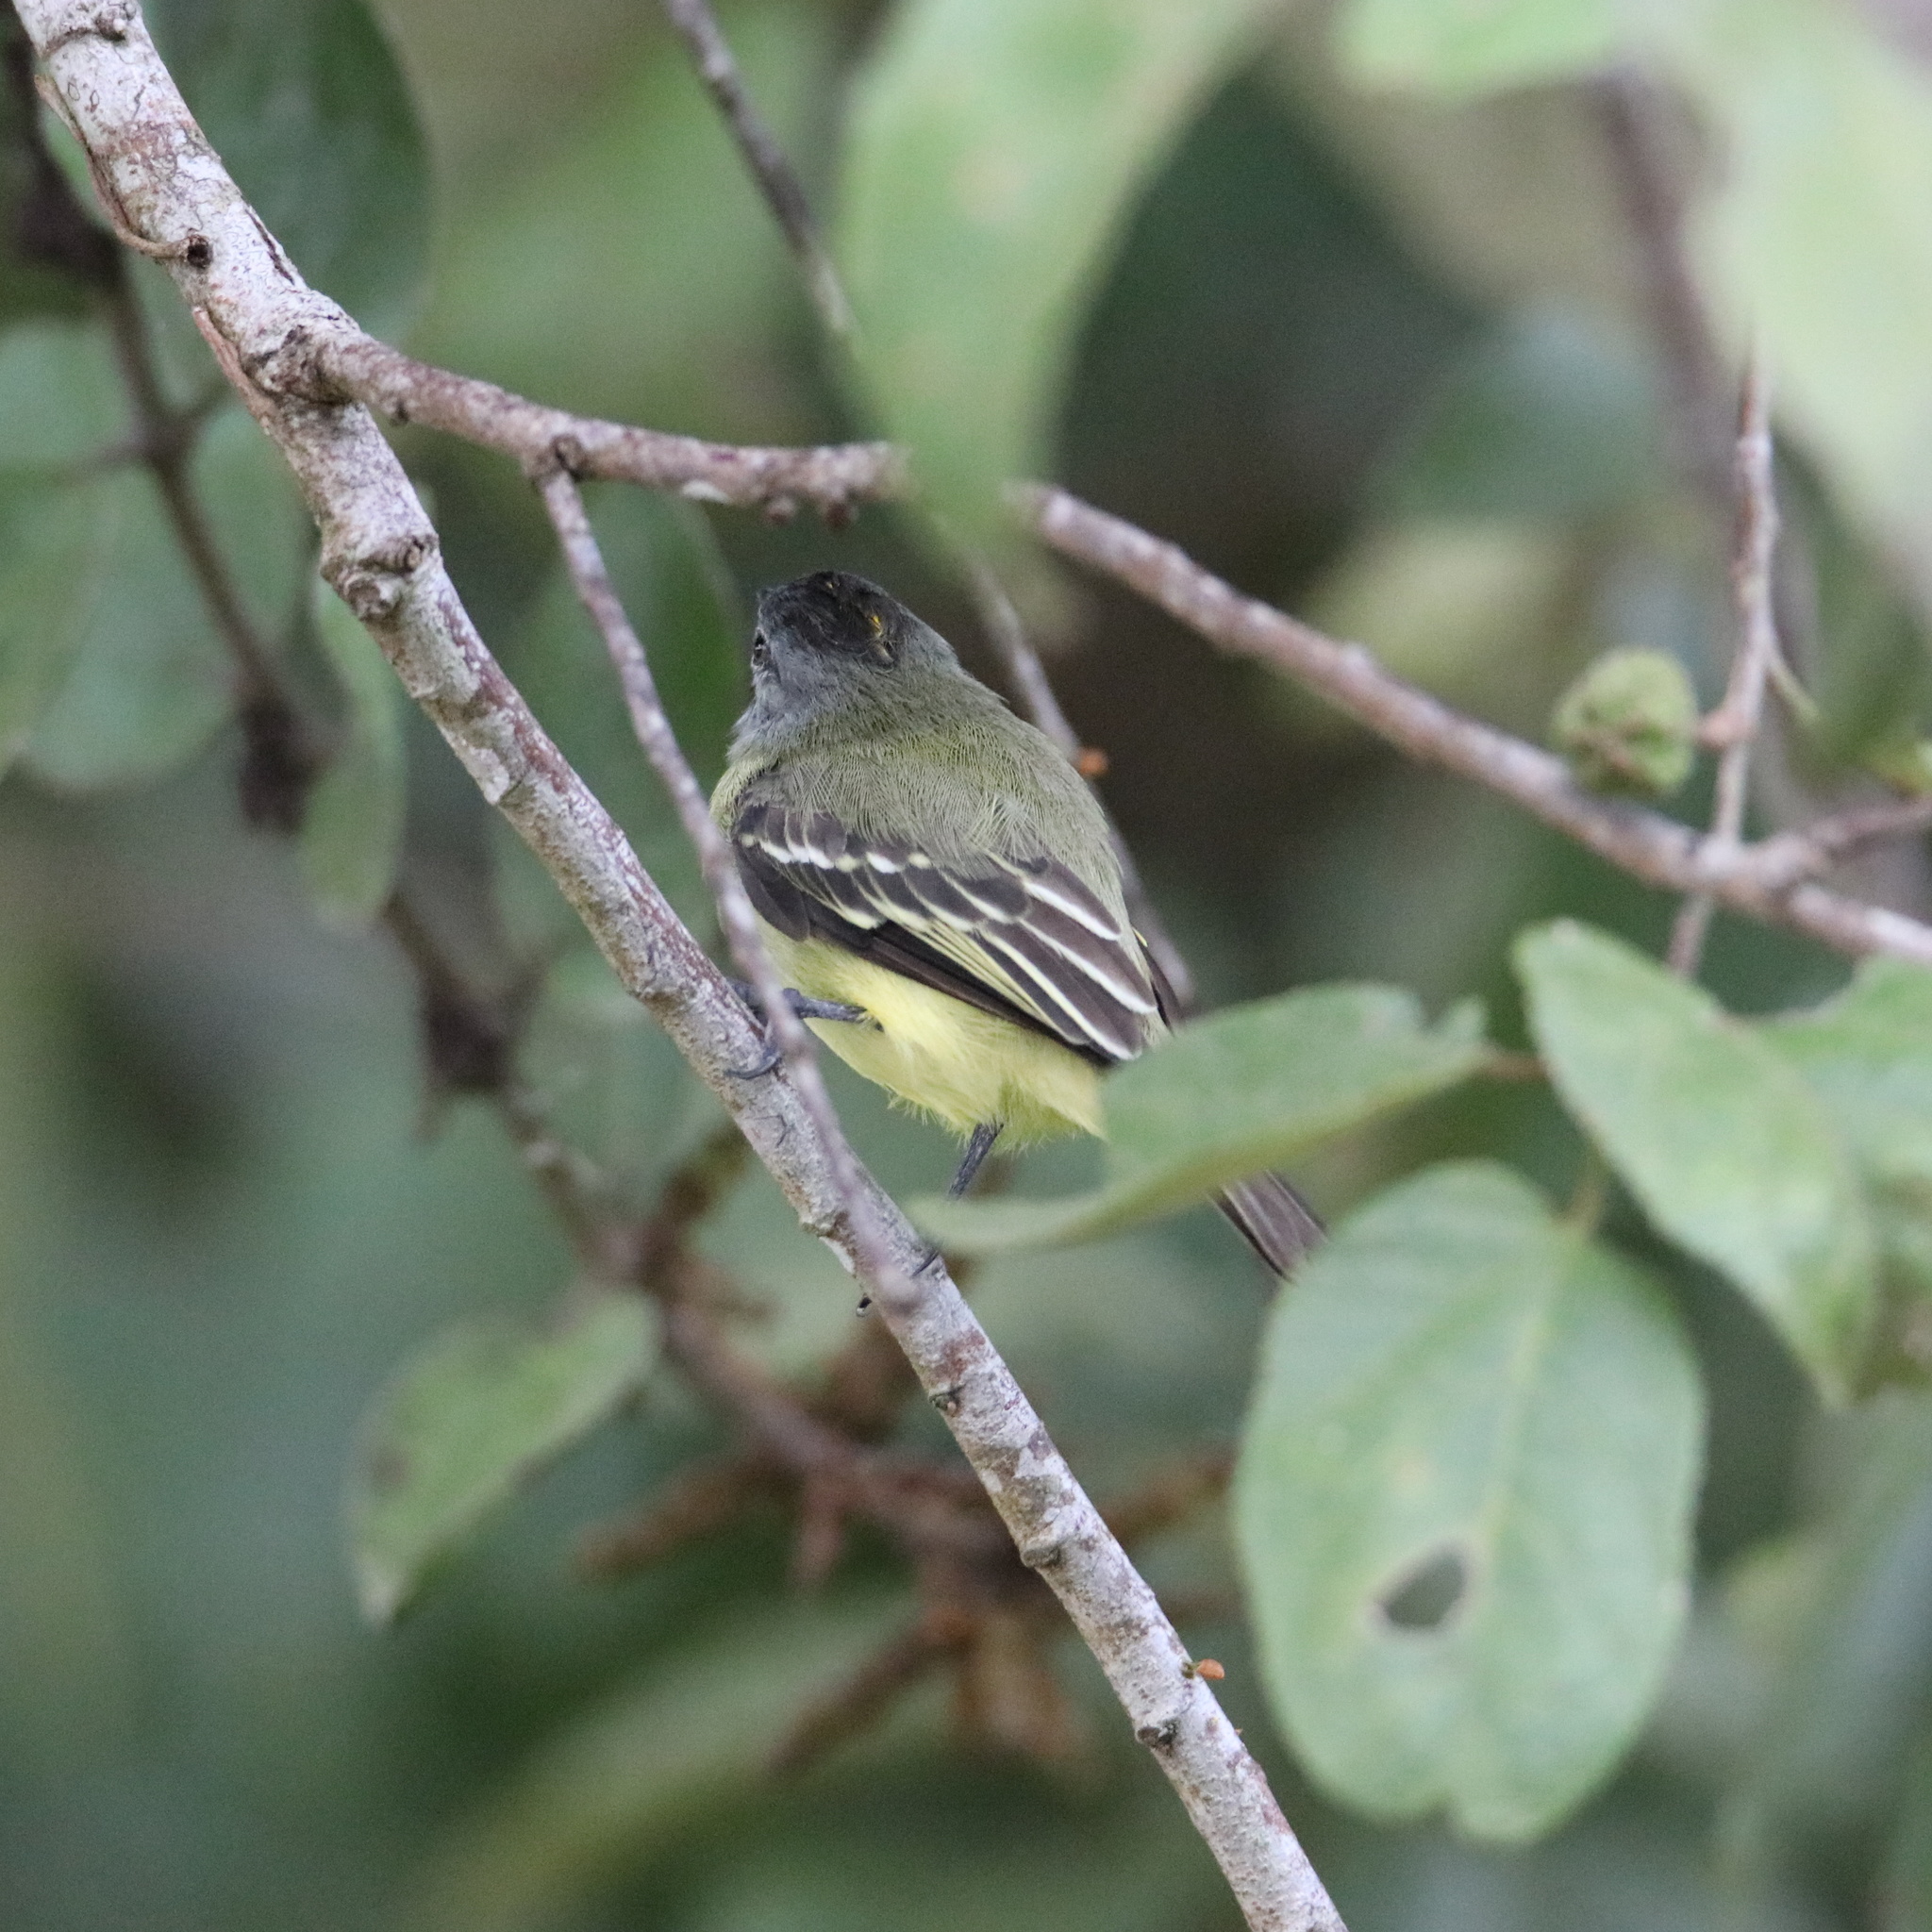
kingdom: Animalia
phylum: Chordata
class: Aves
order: Passeriformes
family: Tyrannidae
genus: Tyrannulus
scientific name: Tyrannulus elatus
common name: Yellow-crowned tyrannulet
